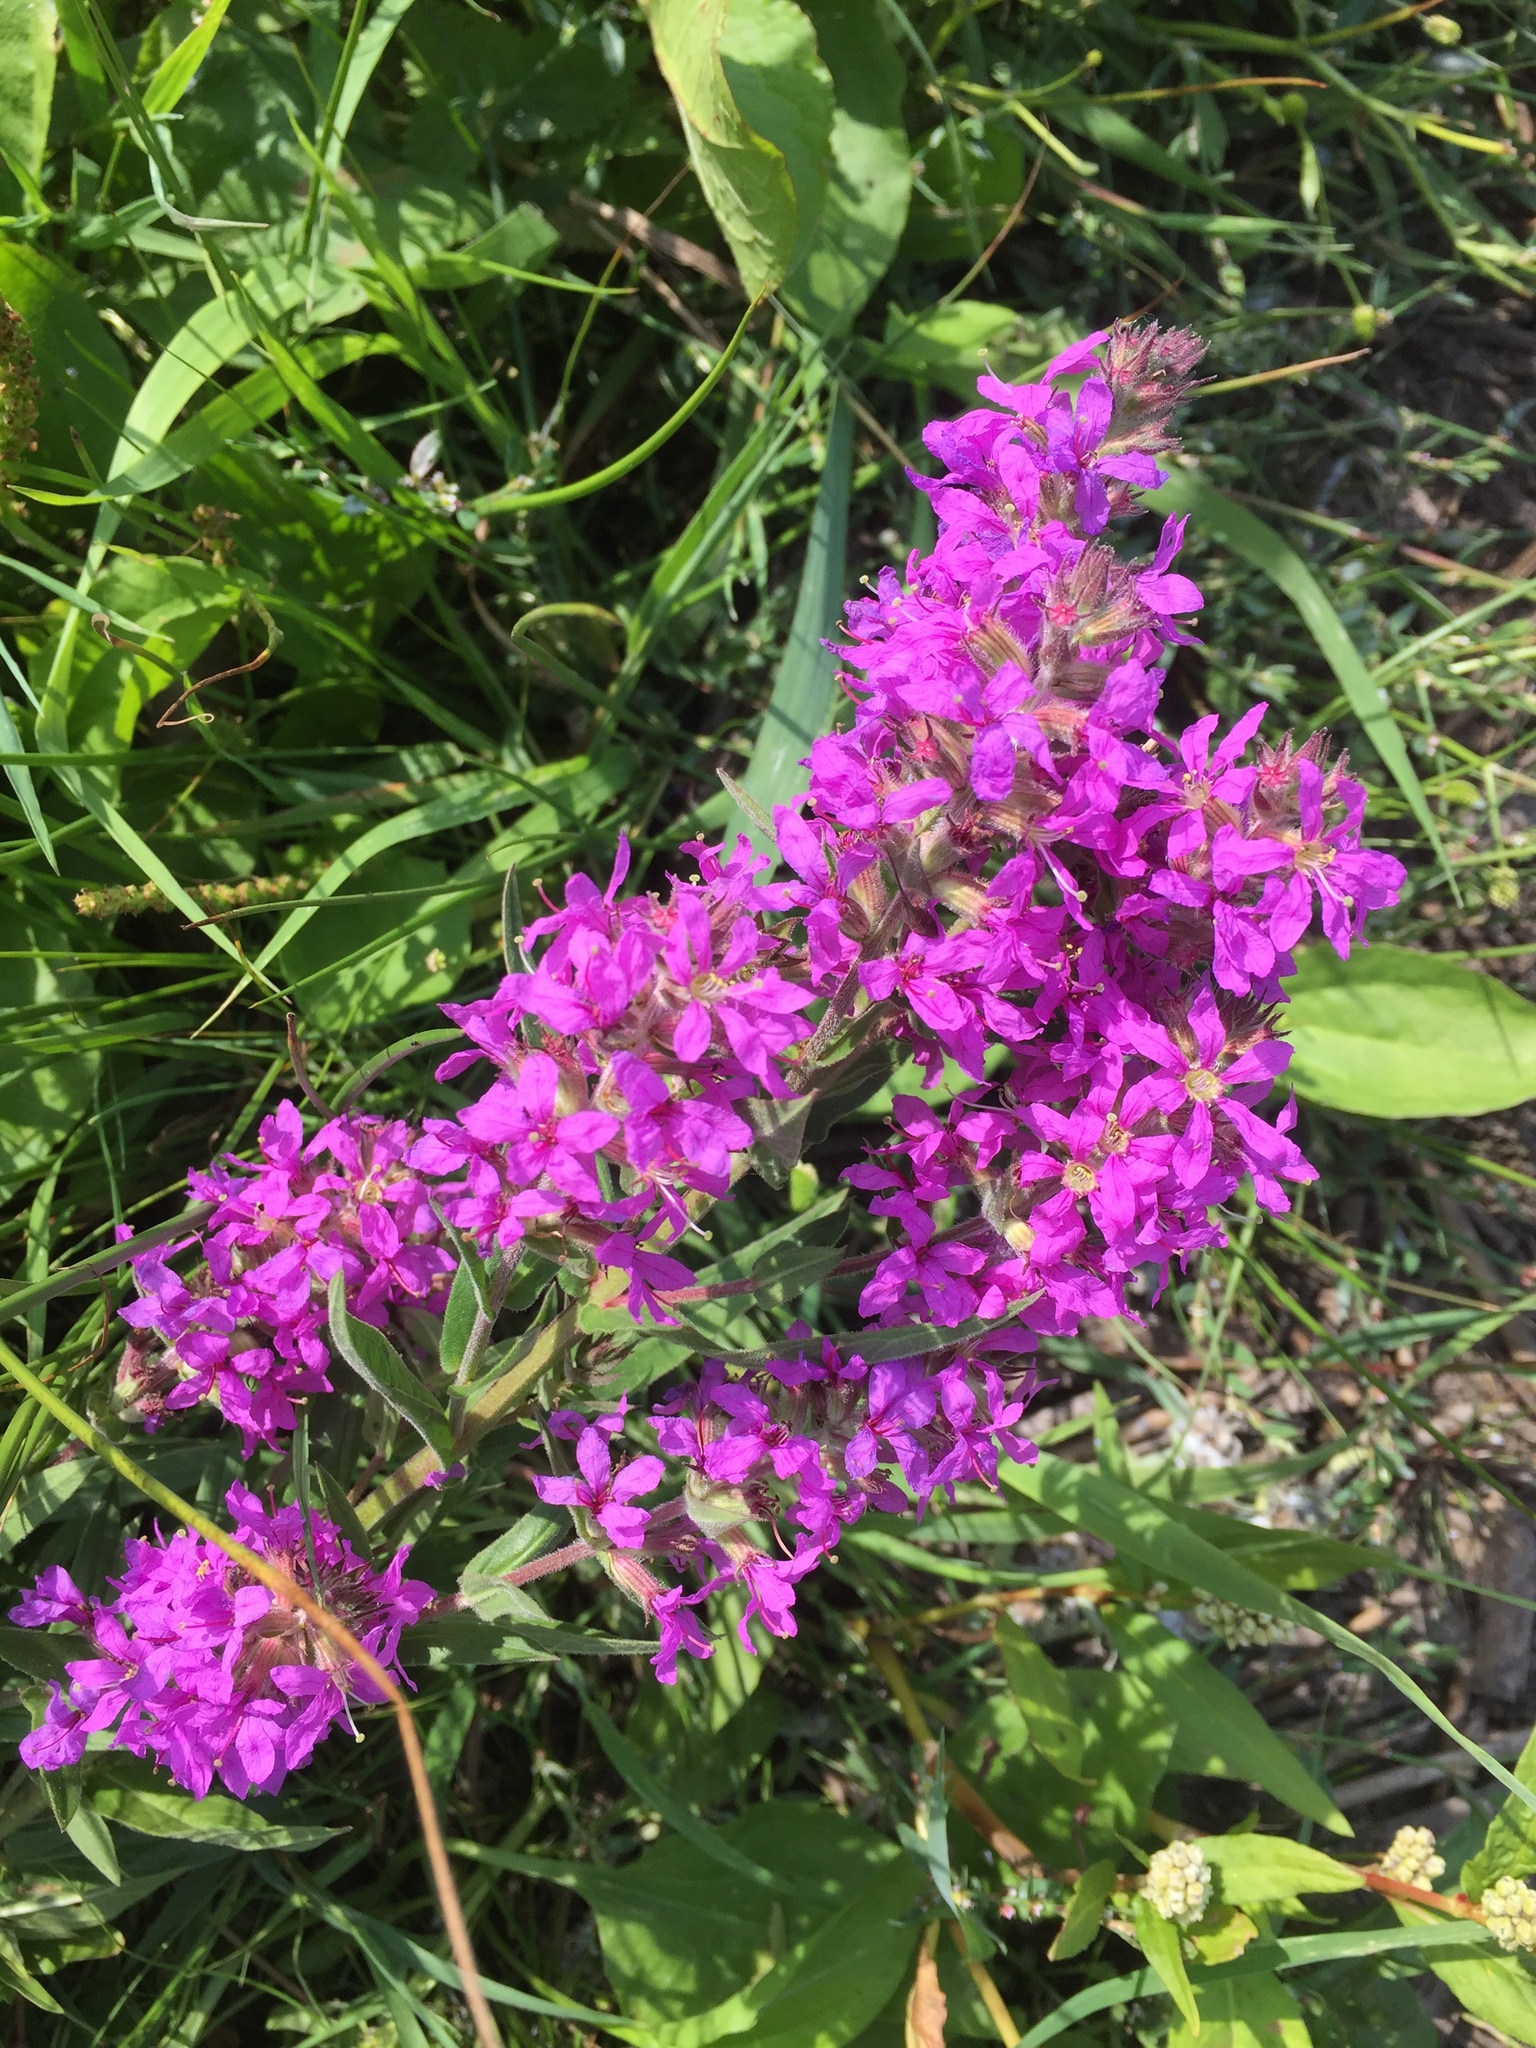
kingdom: Plantae
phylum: Tracheophyta
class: Magnoliopsida
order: Myrtales
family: Lythraceae
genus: Lythrum
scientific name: Lythrum salicaria
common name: Purple loosestrife
